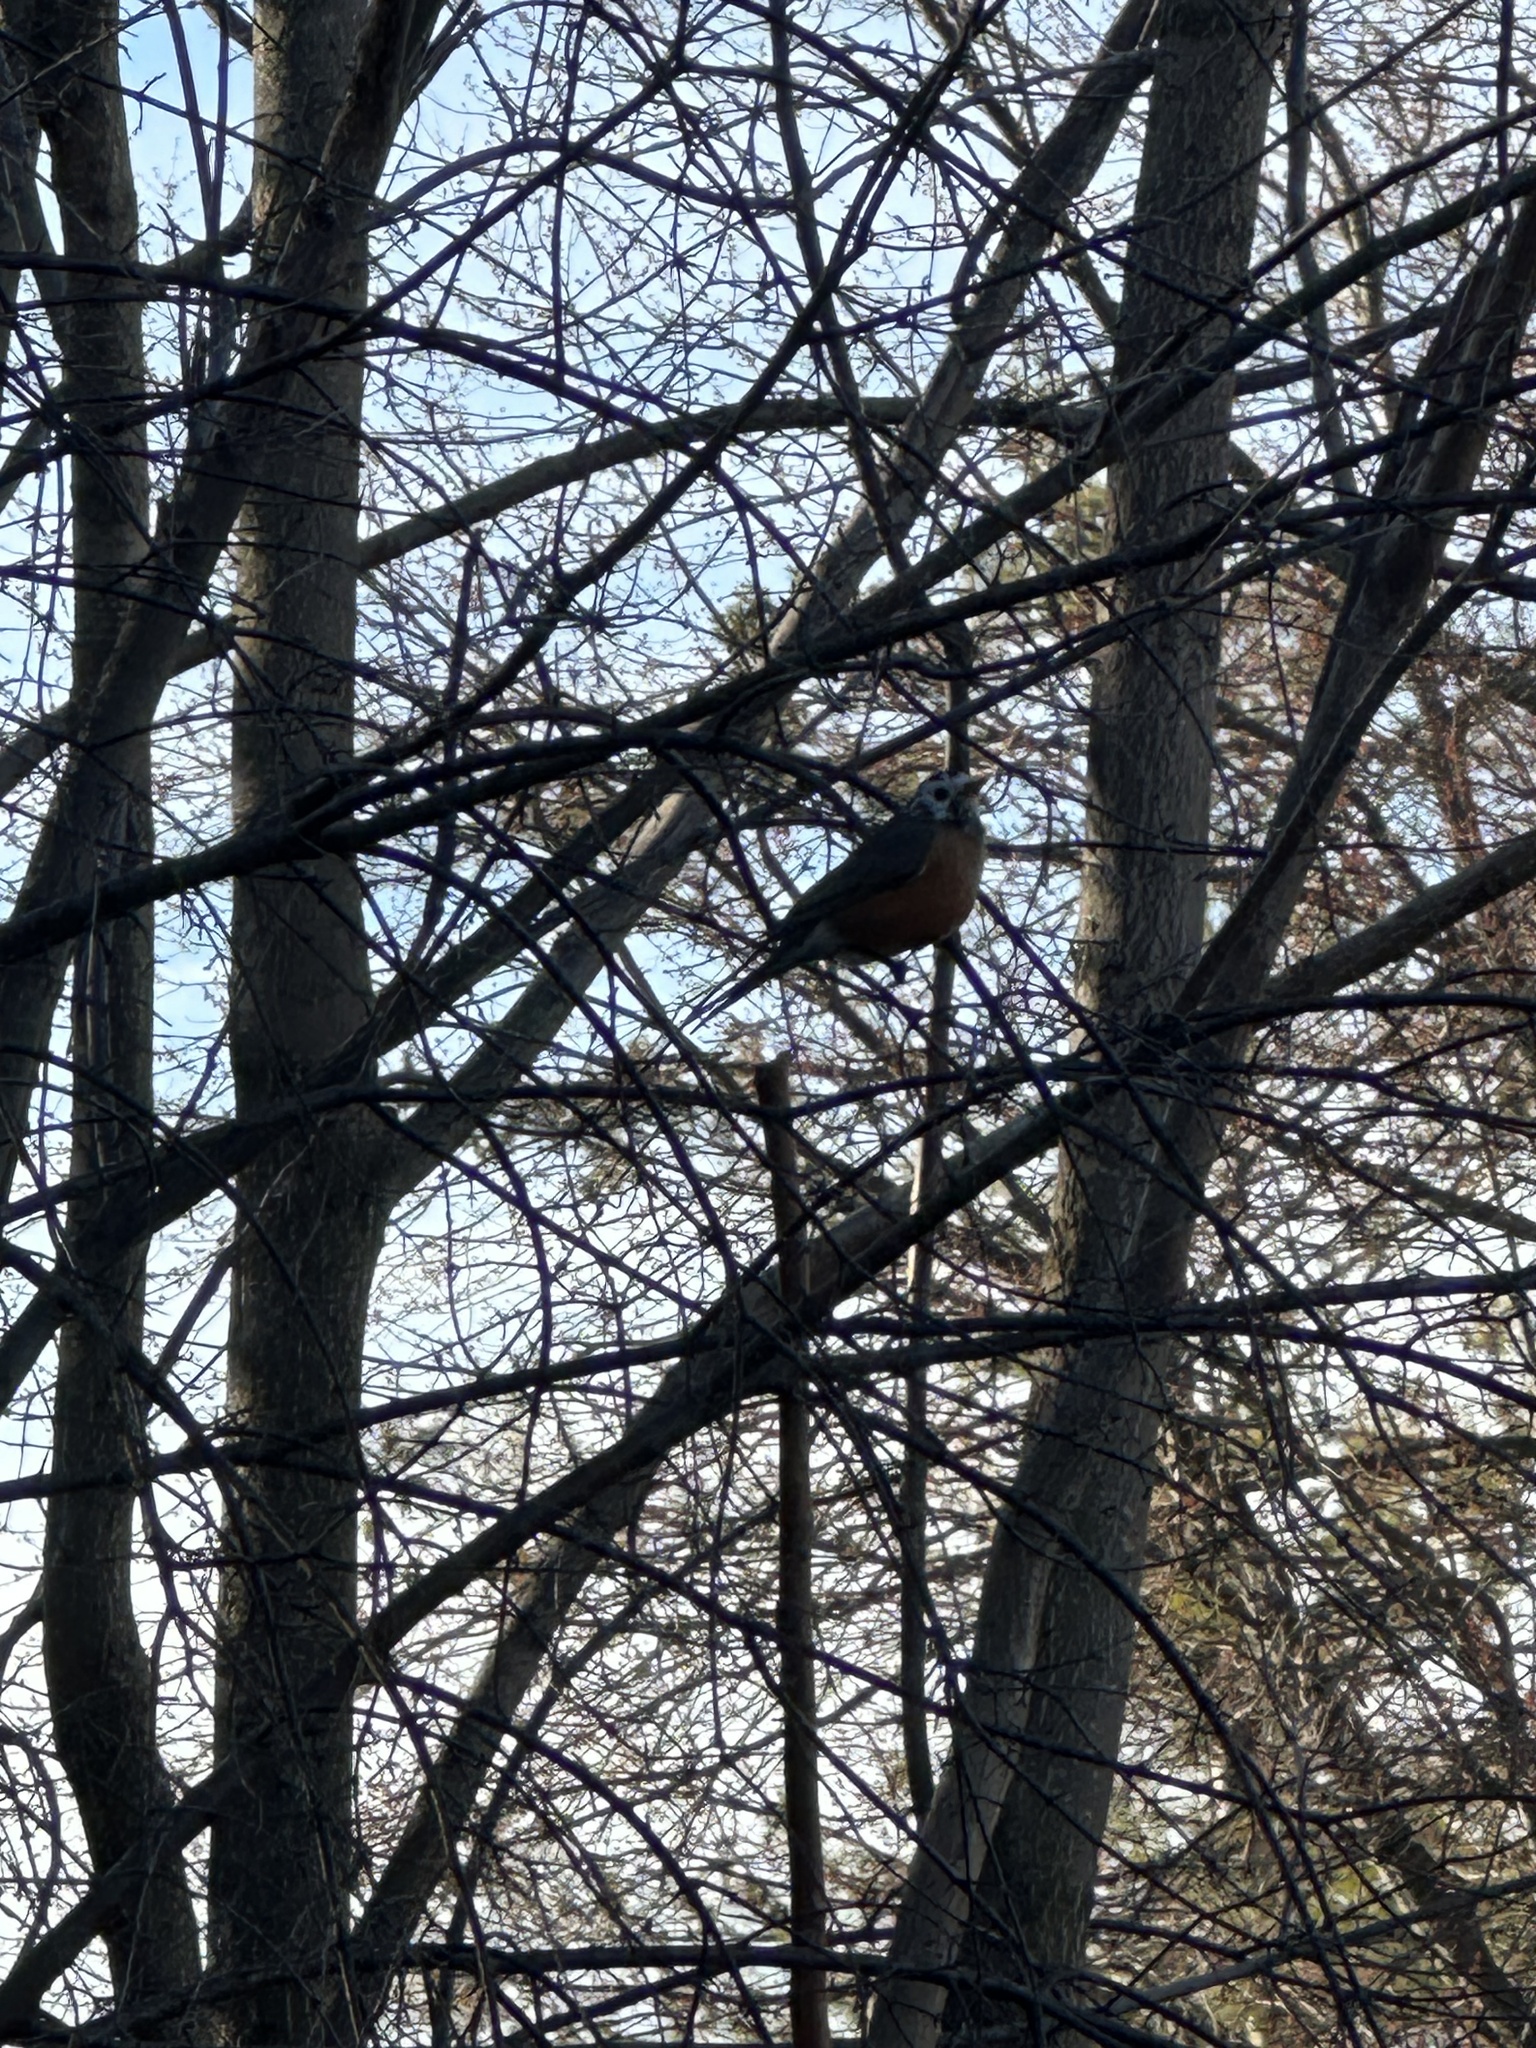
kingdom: Animalia
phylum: Chordata
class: Aves
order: Passeriformes
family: Turdidae
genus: Turdus
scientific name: Turdus migratorius
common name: American robin
